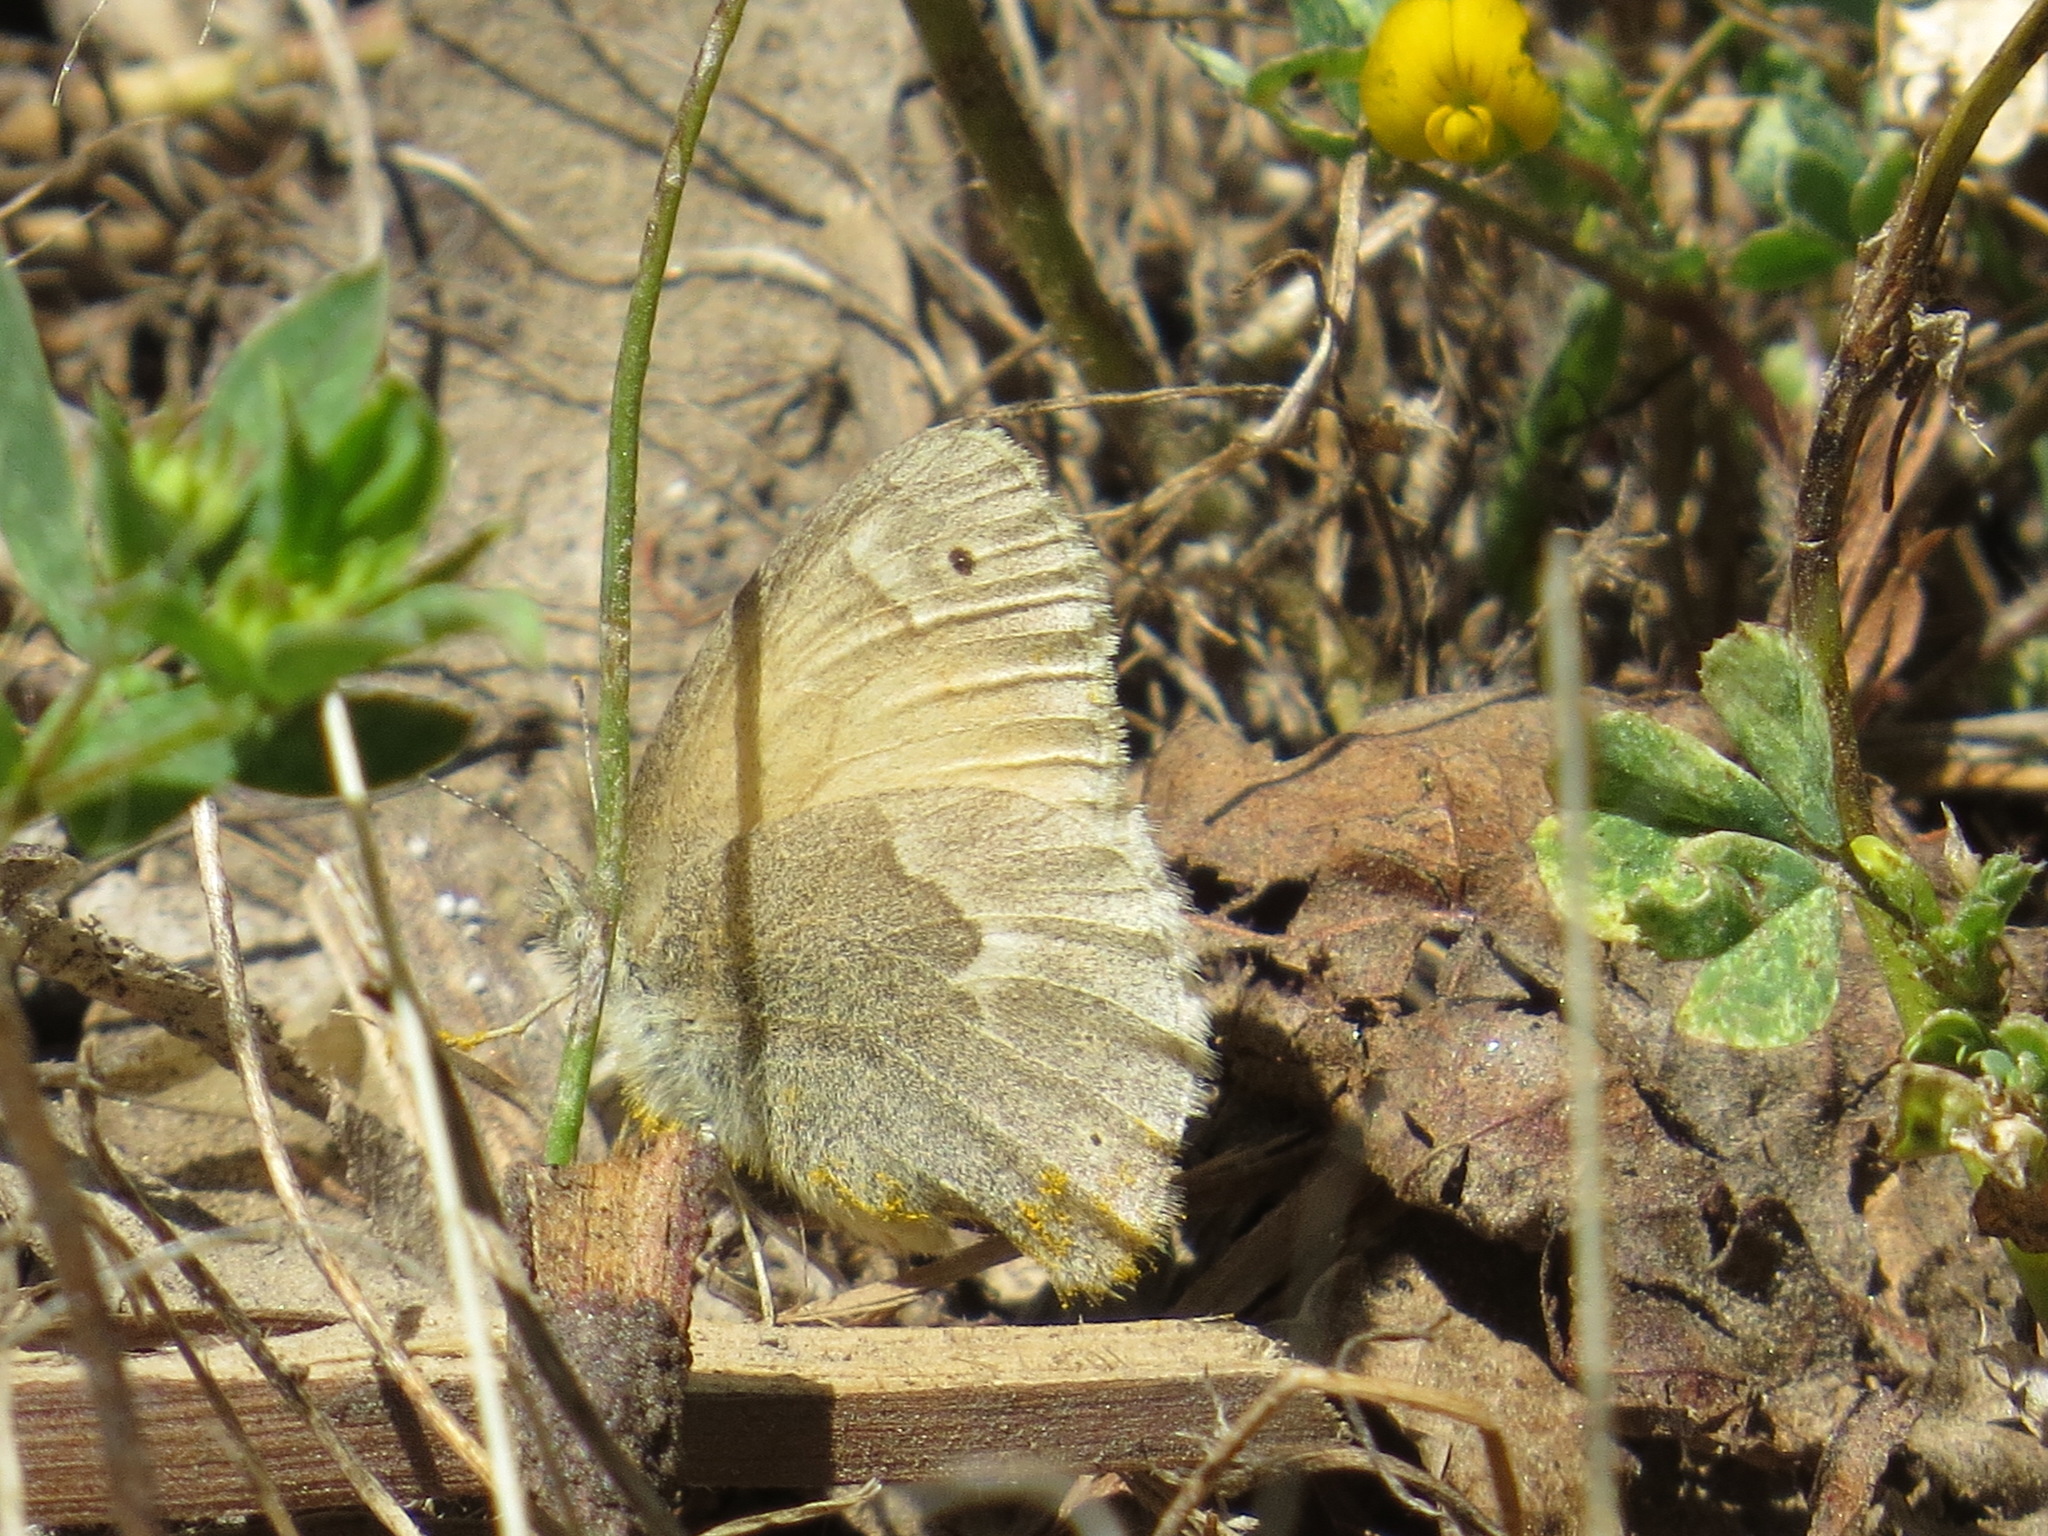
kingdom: Animalia
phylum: Arthropoda
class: Insecta
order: Lepidoptera
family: Nymphalidae
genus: Coenonympha
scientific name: Coenonympha california
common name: Common ringlet
